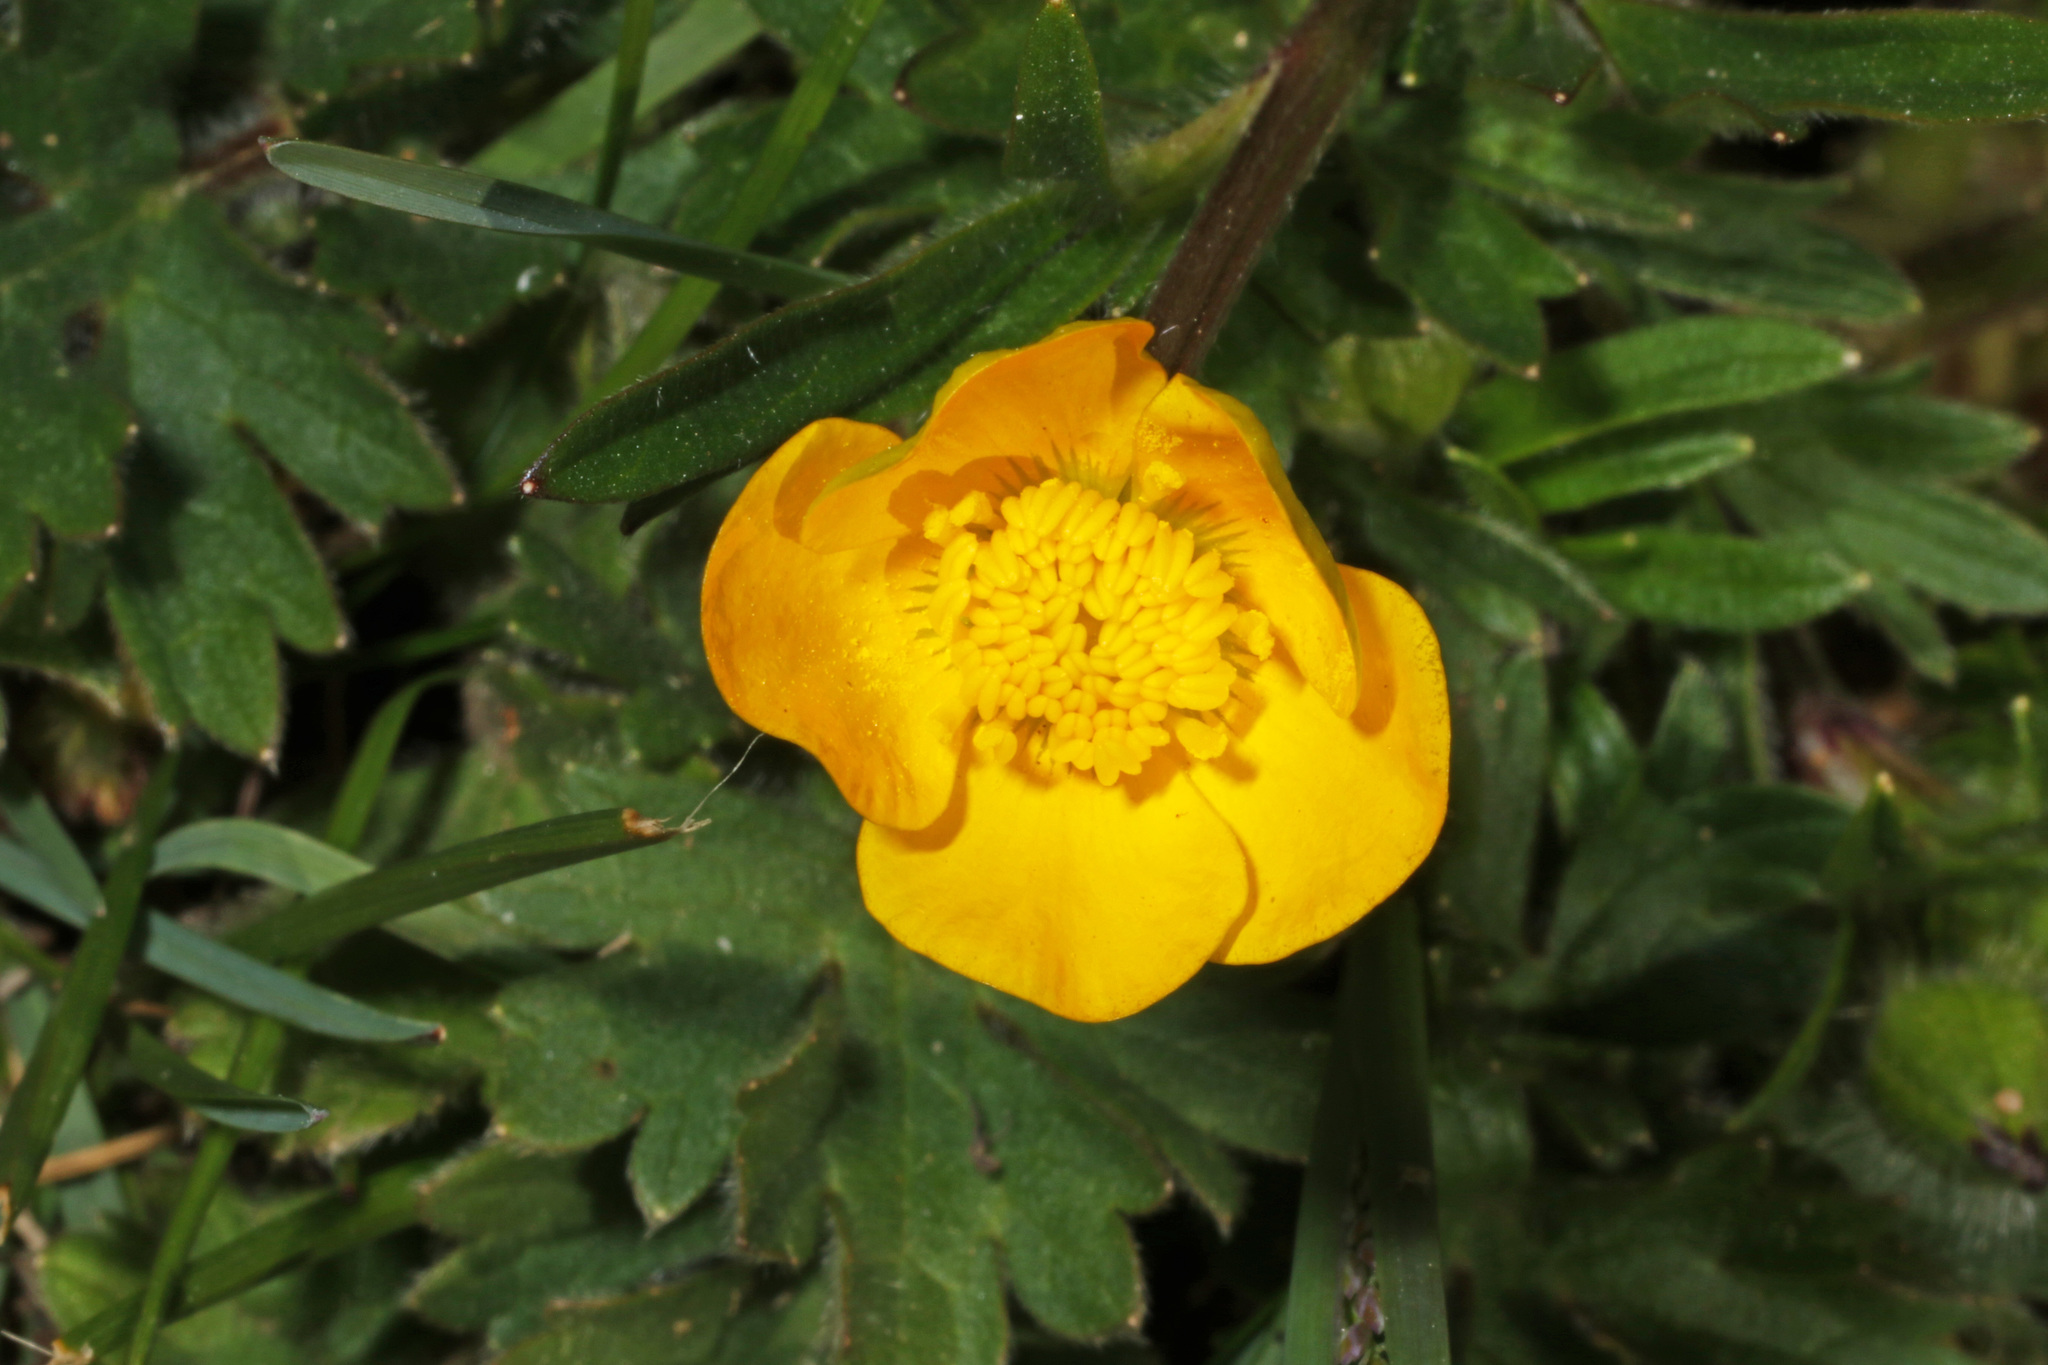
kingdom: Plantae
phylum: Tracheophyta
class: Magnoliopsida
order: Ranunculales
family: Ranunculaceae
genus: Ranunculus
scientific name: Ranunculus bulbosus
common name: Bulbous buttercup
